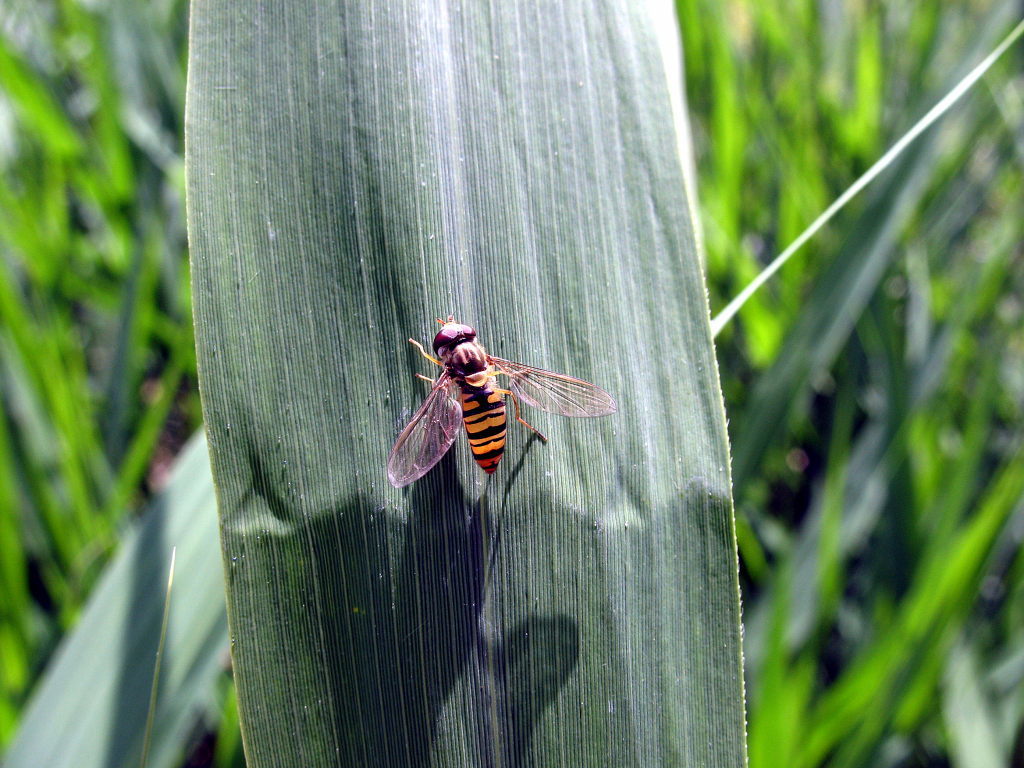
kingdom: Animalia
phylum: Arthropoda
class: Insecta
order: Diptera
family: Syrphidae
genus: Episyrphus
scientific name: Episyrphus balteatus
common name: Marmalade hoverfly
